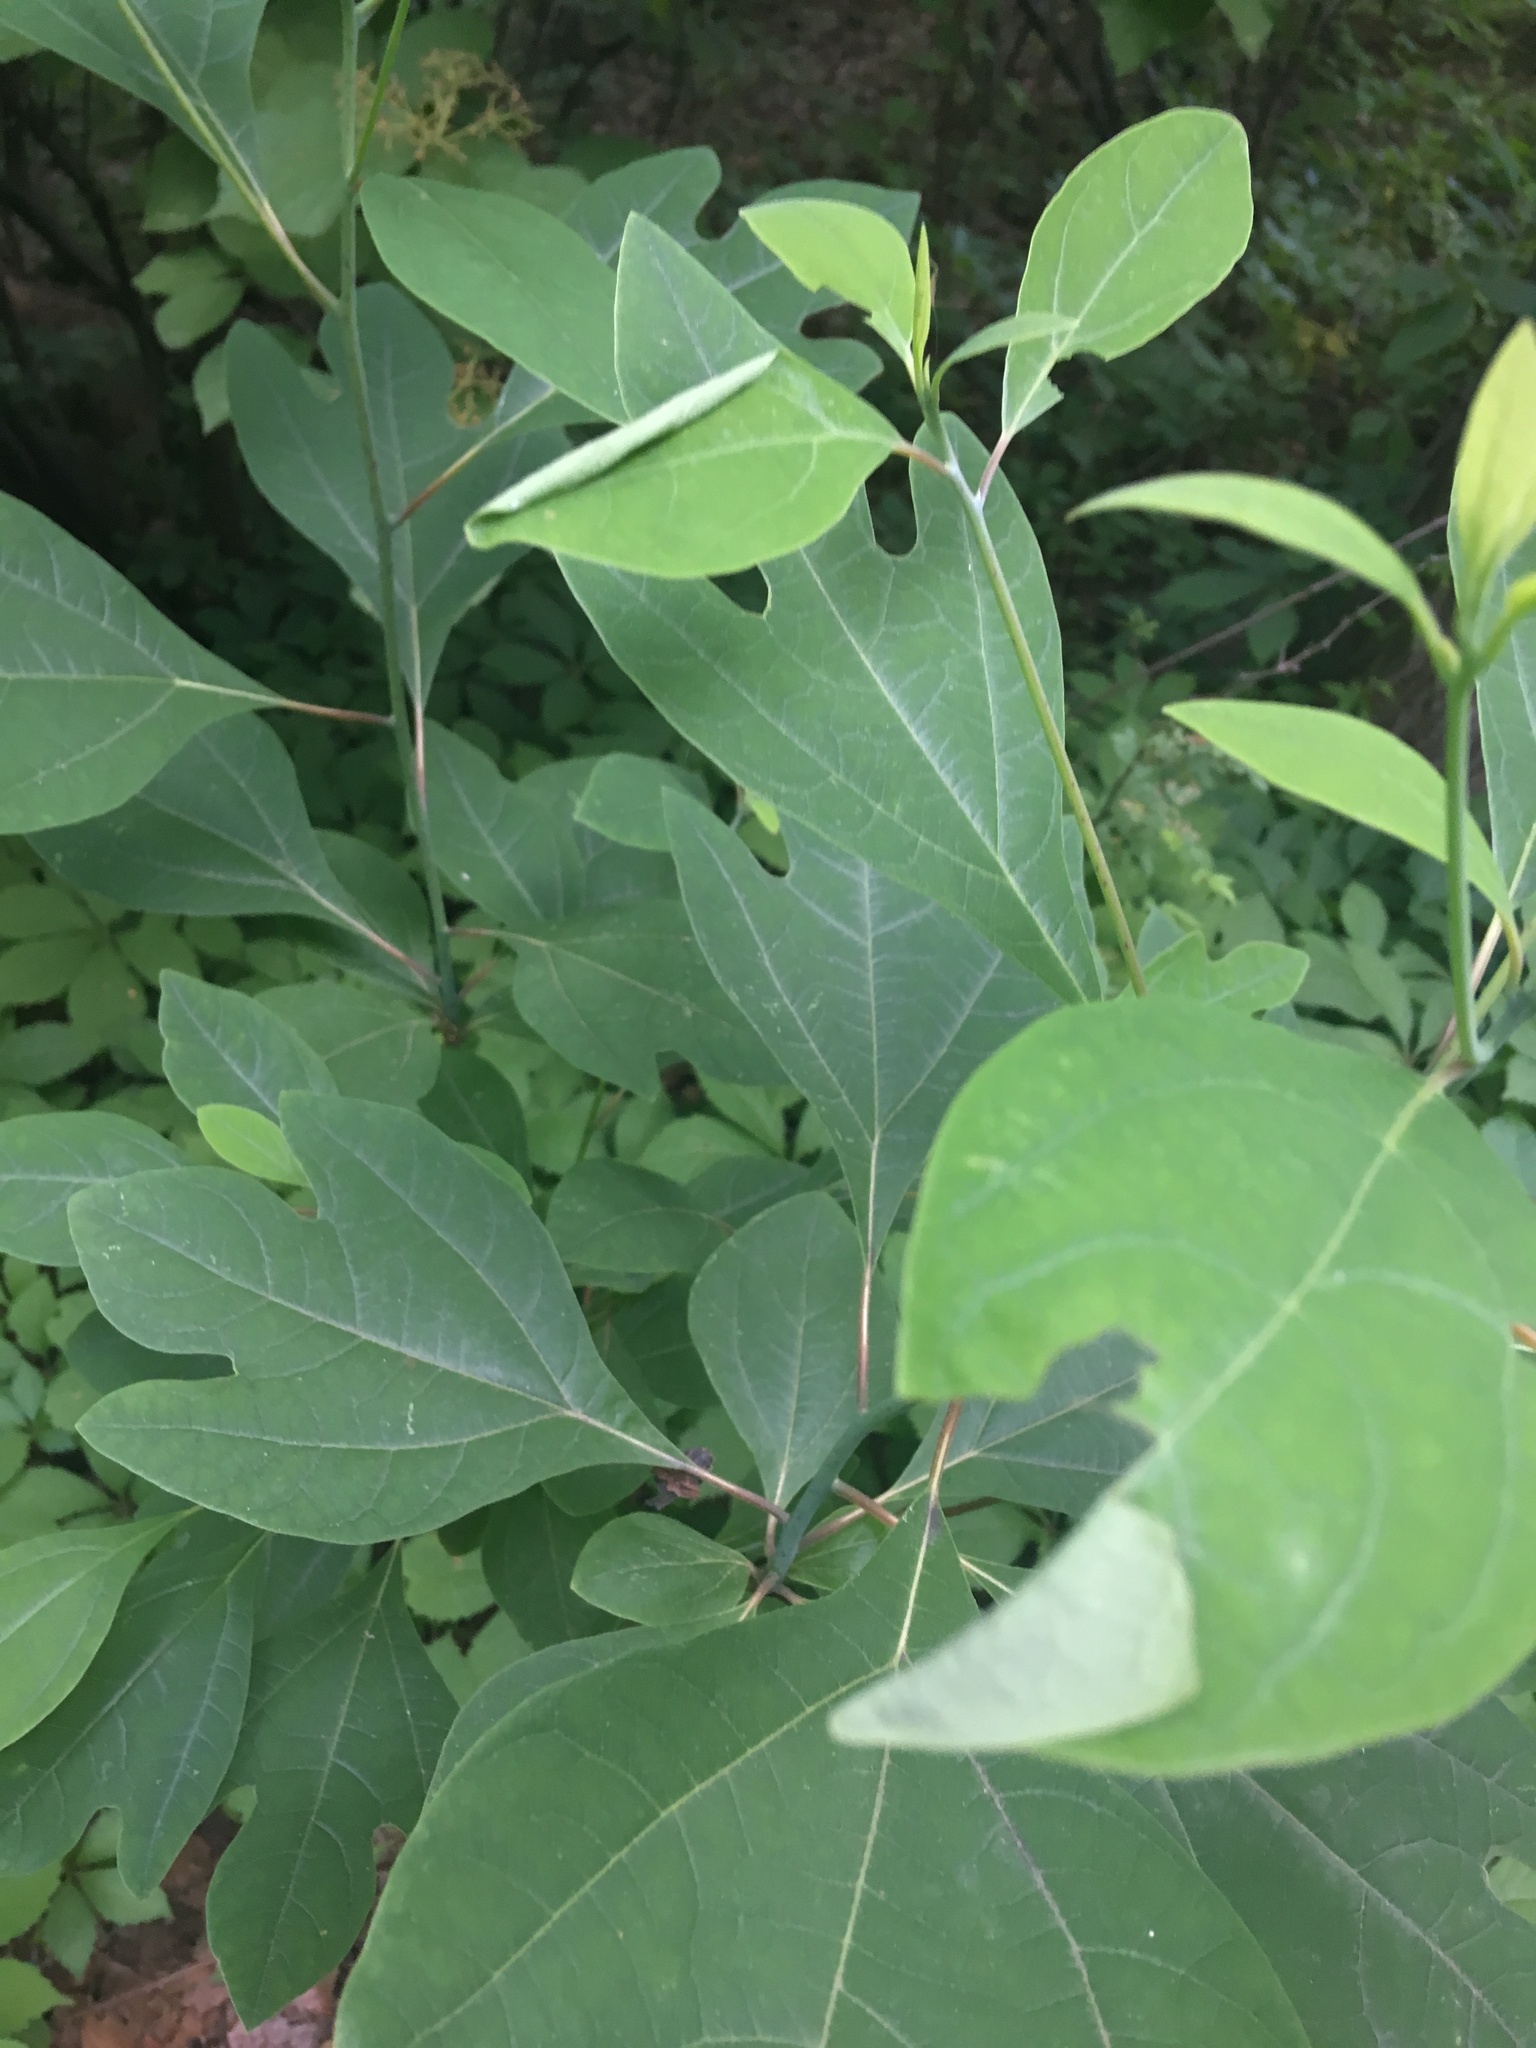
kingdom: Plantae
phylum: Tracheophyta
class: Magnoliopsida
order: Laurales
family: Lauraceae
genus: Sassafras
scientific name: Sassafras albidum
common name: Sassafras
